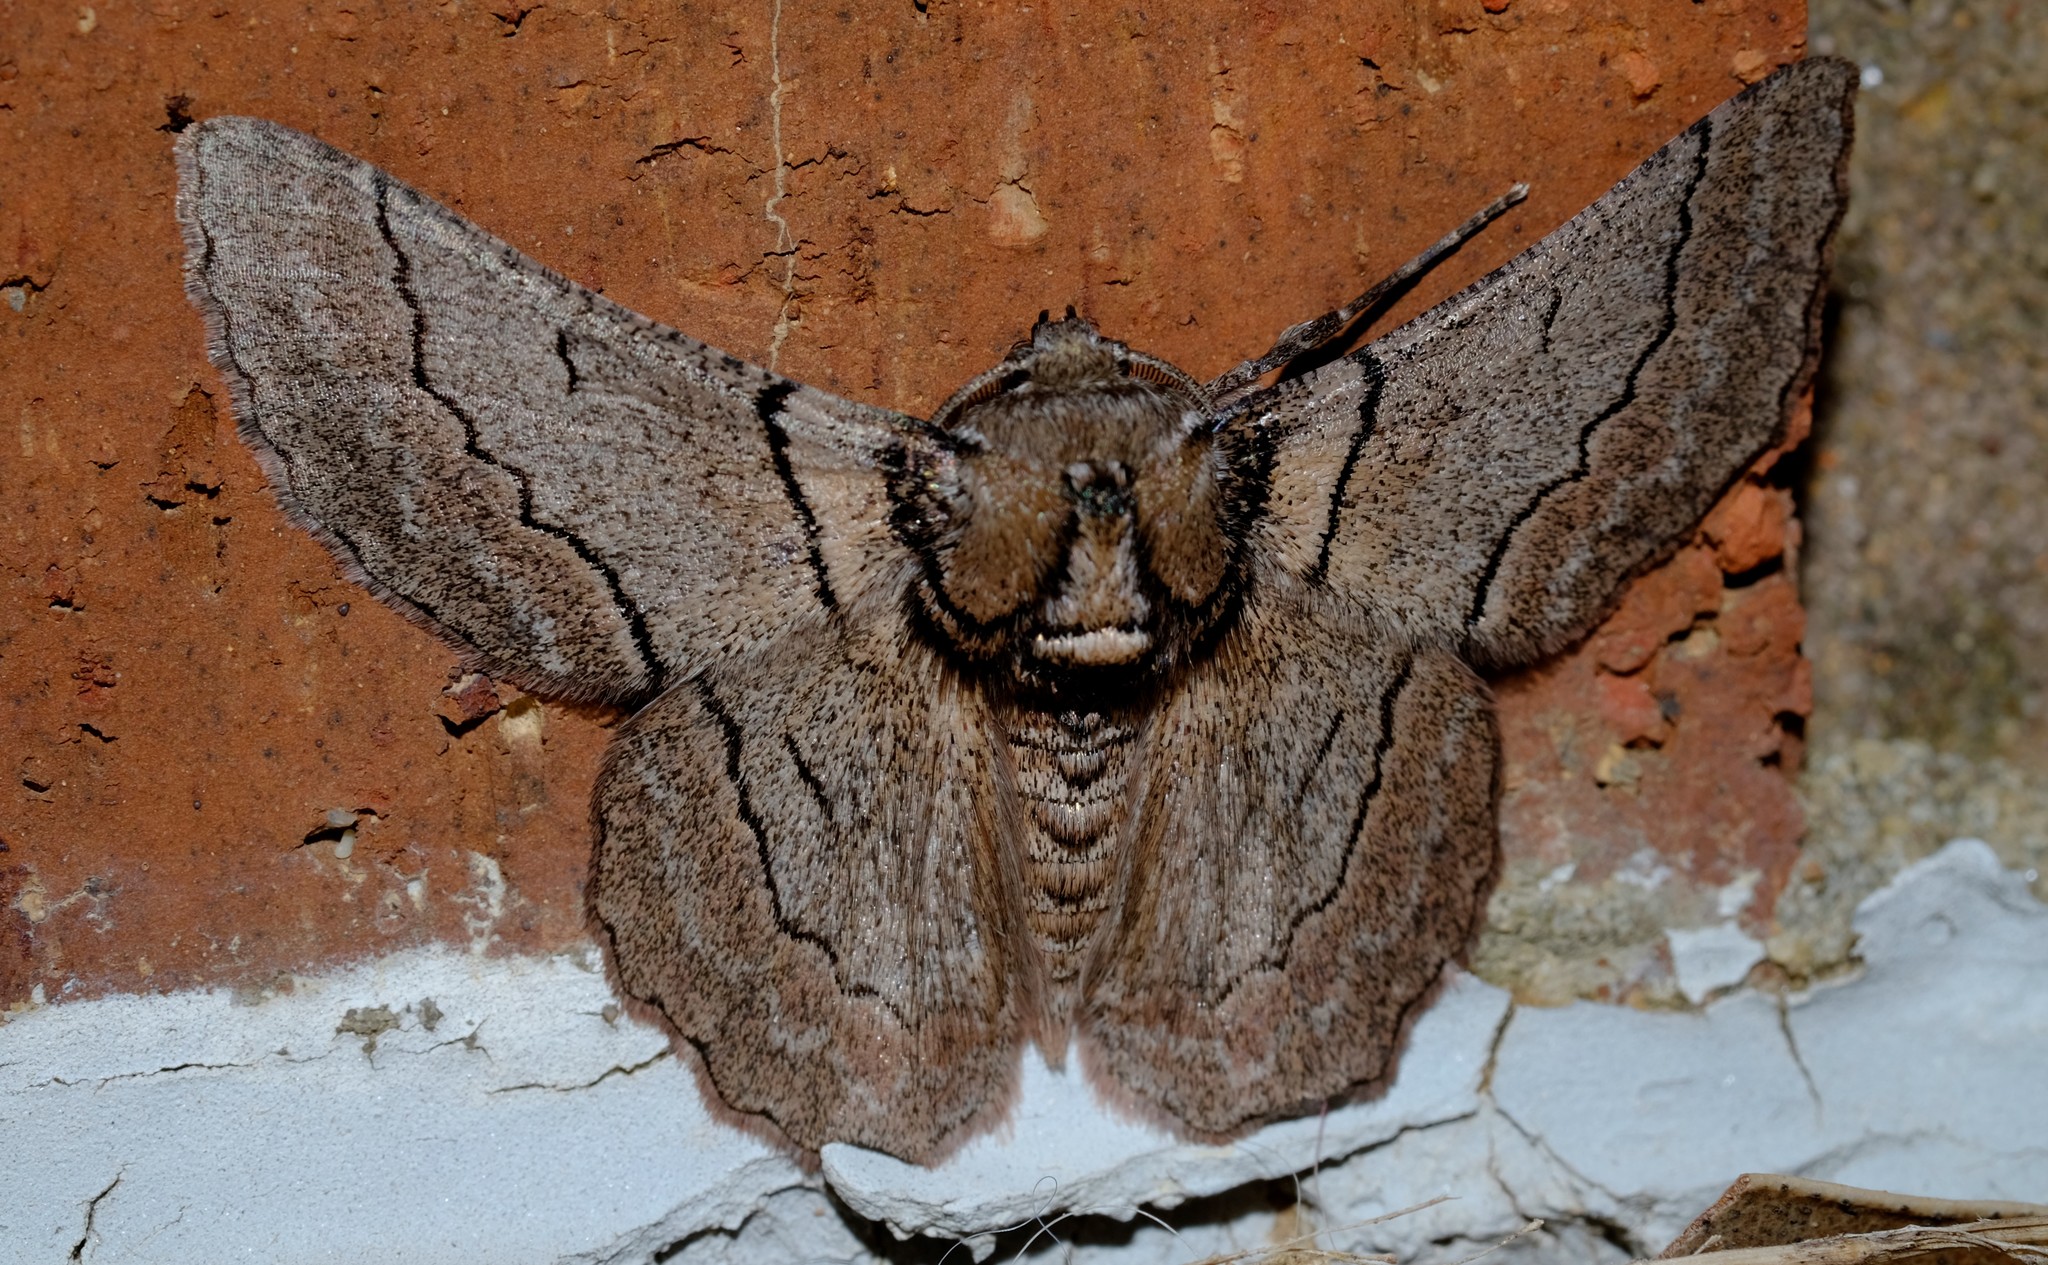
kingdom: Animalia
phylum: Arthropoda
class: Insecta
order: Lepidoptera
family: Geometridae
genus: Hypobapta
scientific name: Hypobapta tachyhalotaria
